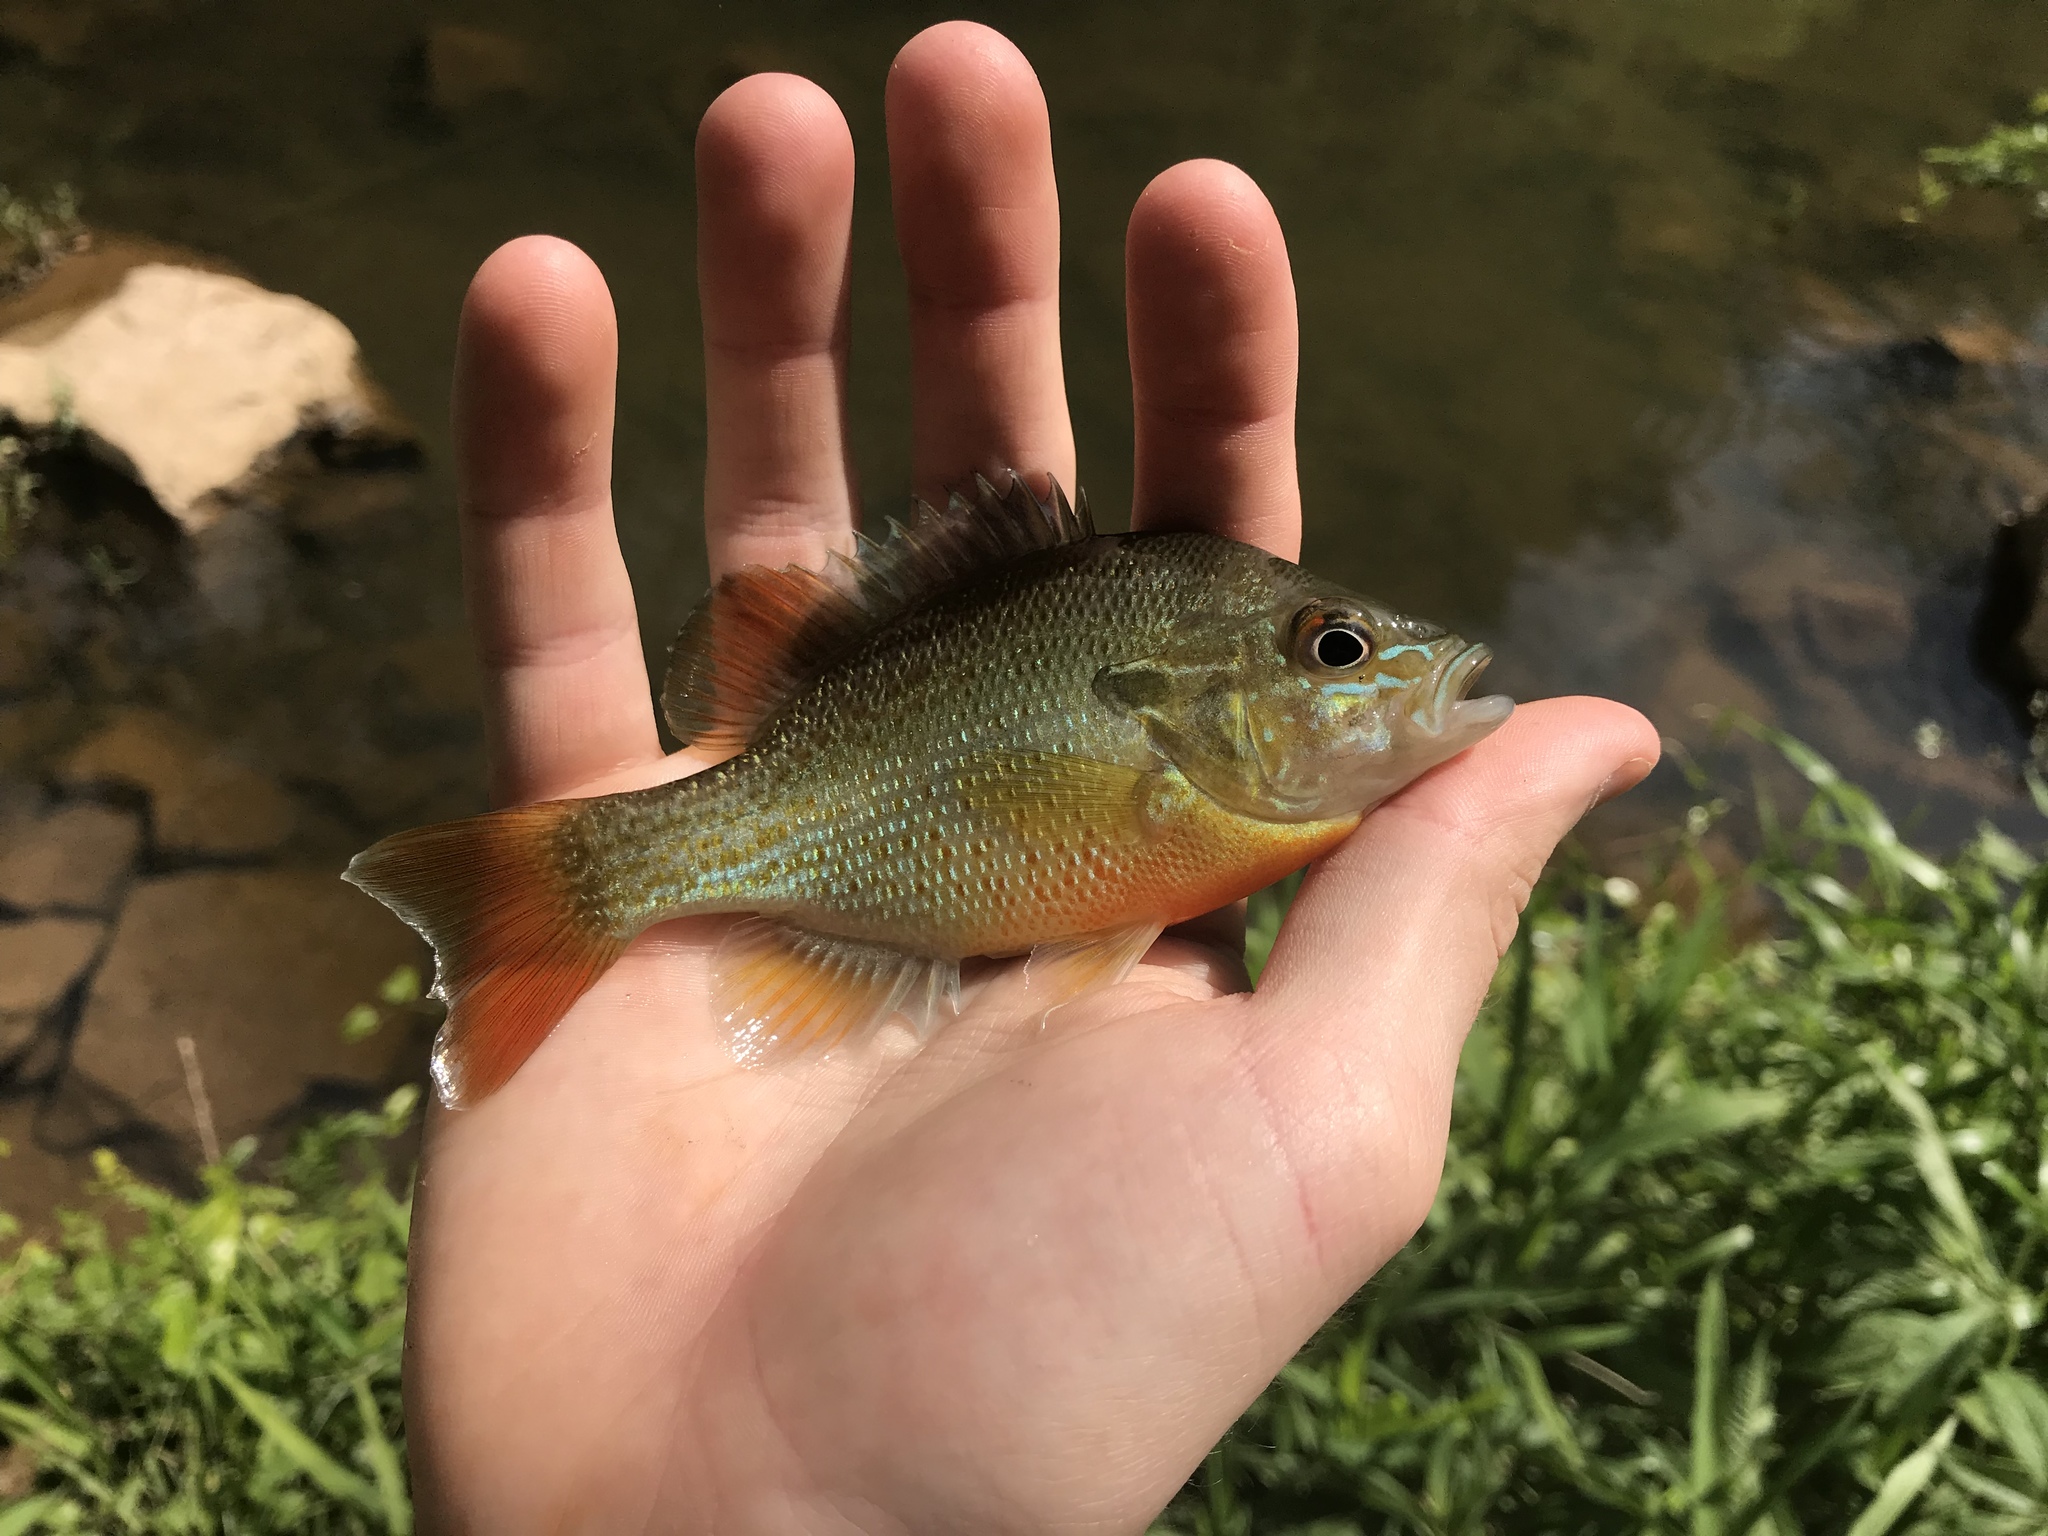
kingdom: Animalia
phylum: Chordata
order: Perciformes
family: Centrarchidae
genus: Lepomis
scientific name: Lepomis auritus
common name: Redbreast sunfish
